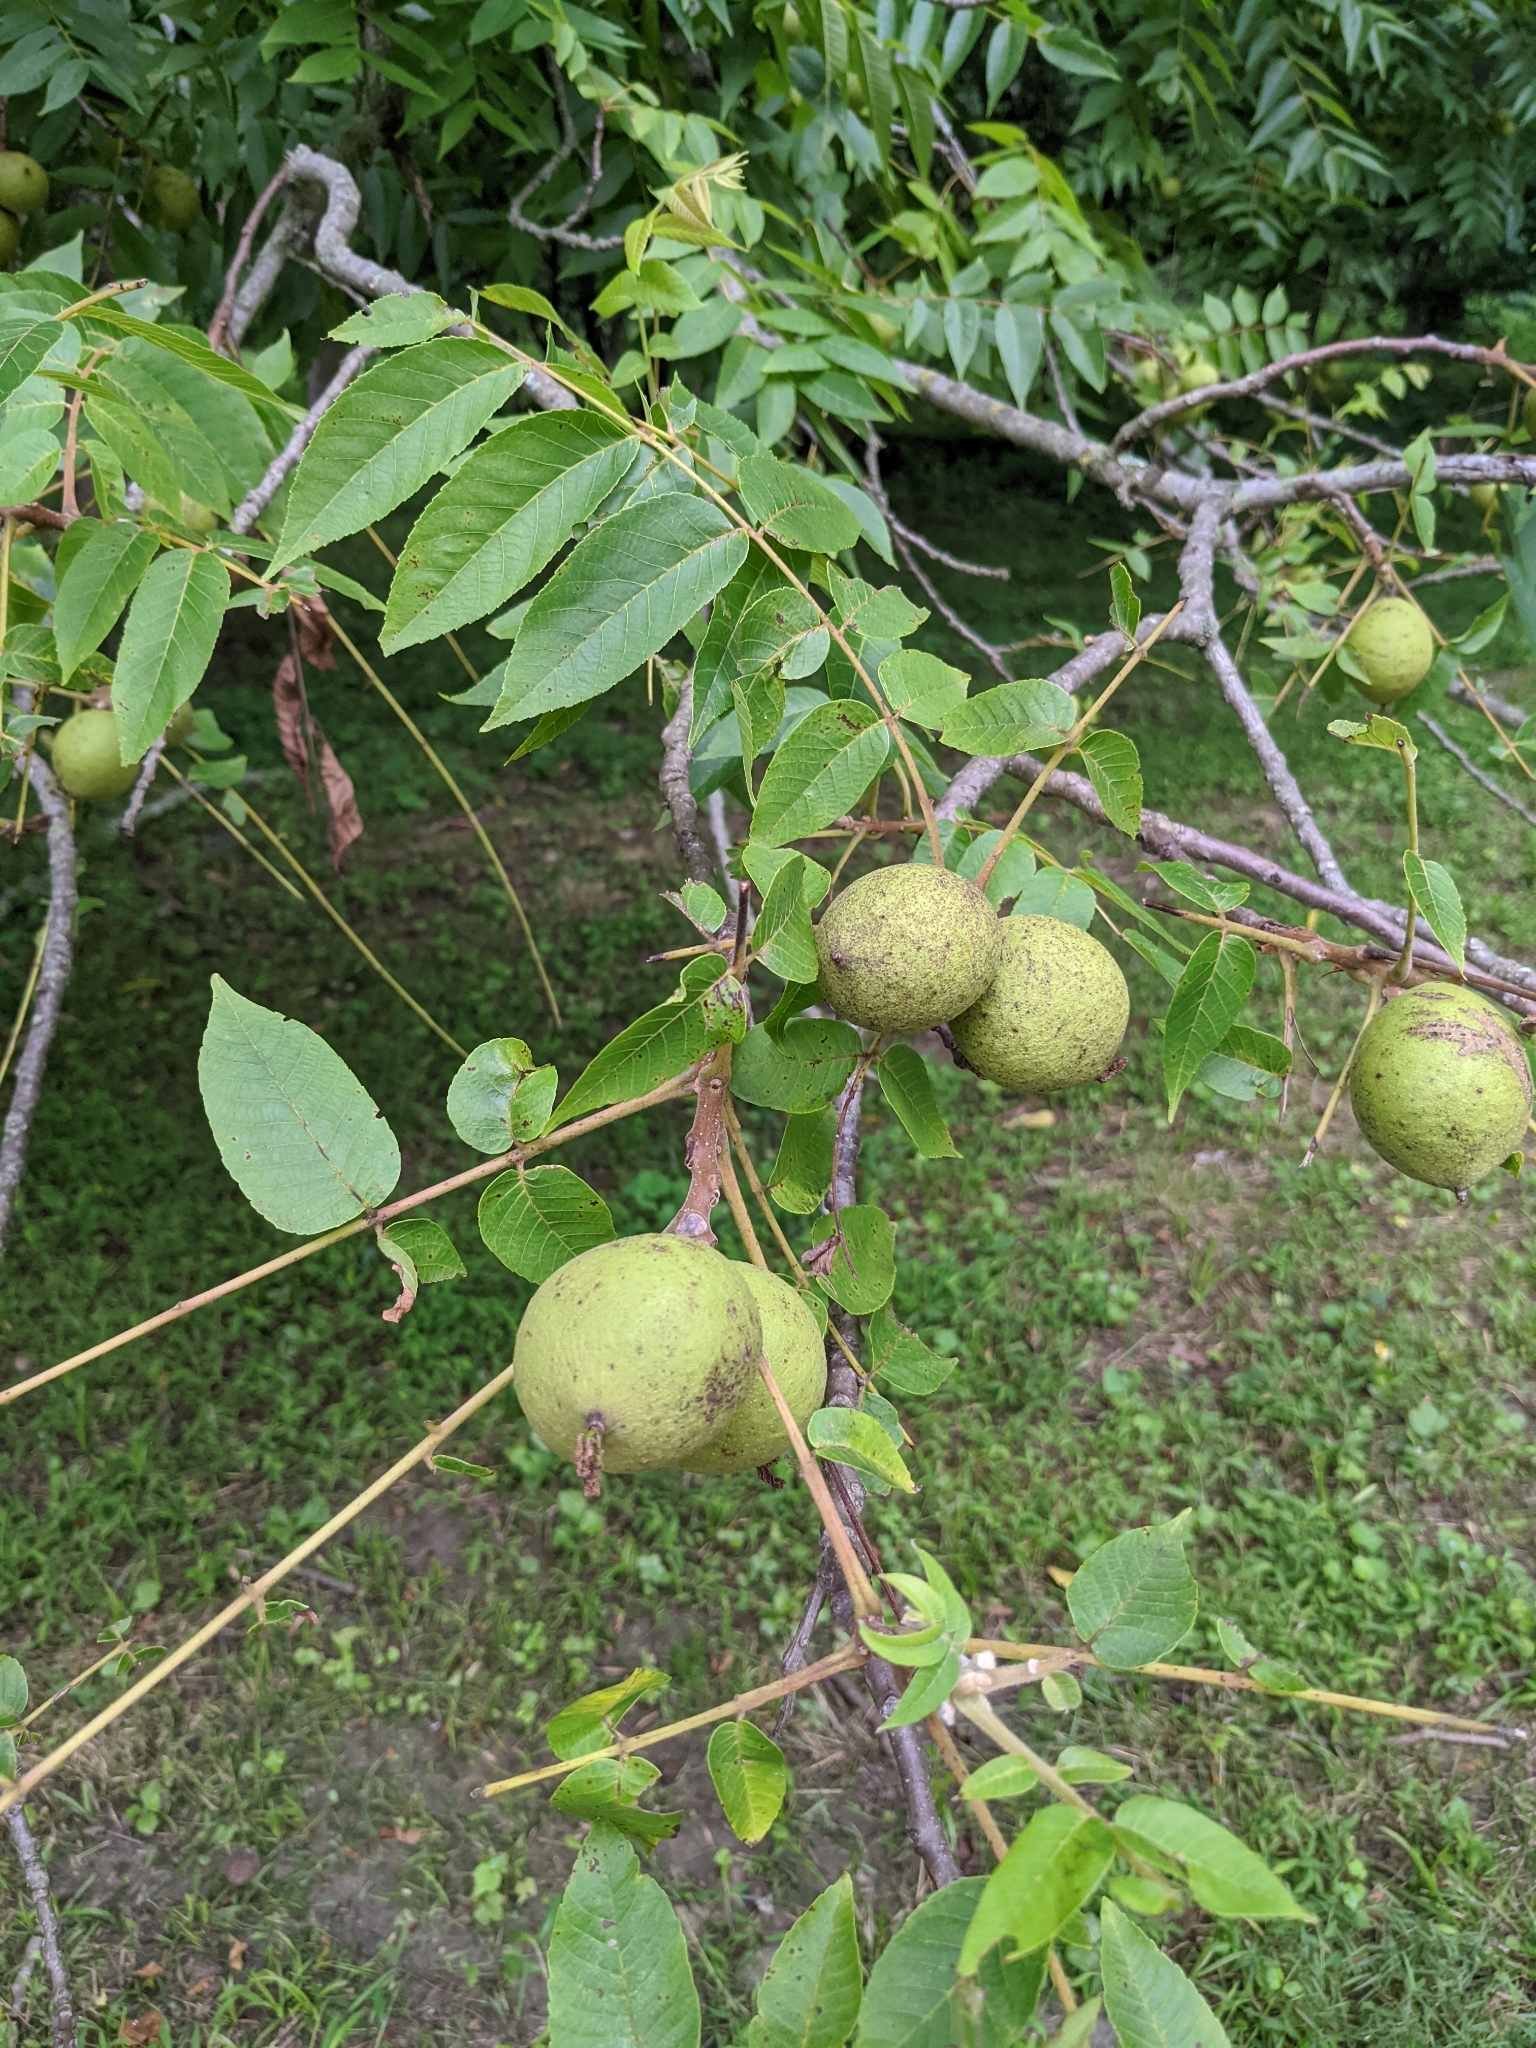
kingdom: Plantae
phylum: Tracheophyta
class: Magnoliopsida
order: Fagales
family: Juglandaceae
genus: Juglans
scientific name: Juglans nigra
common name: Black walnut
